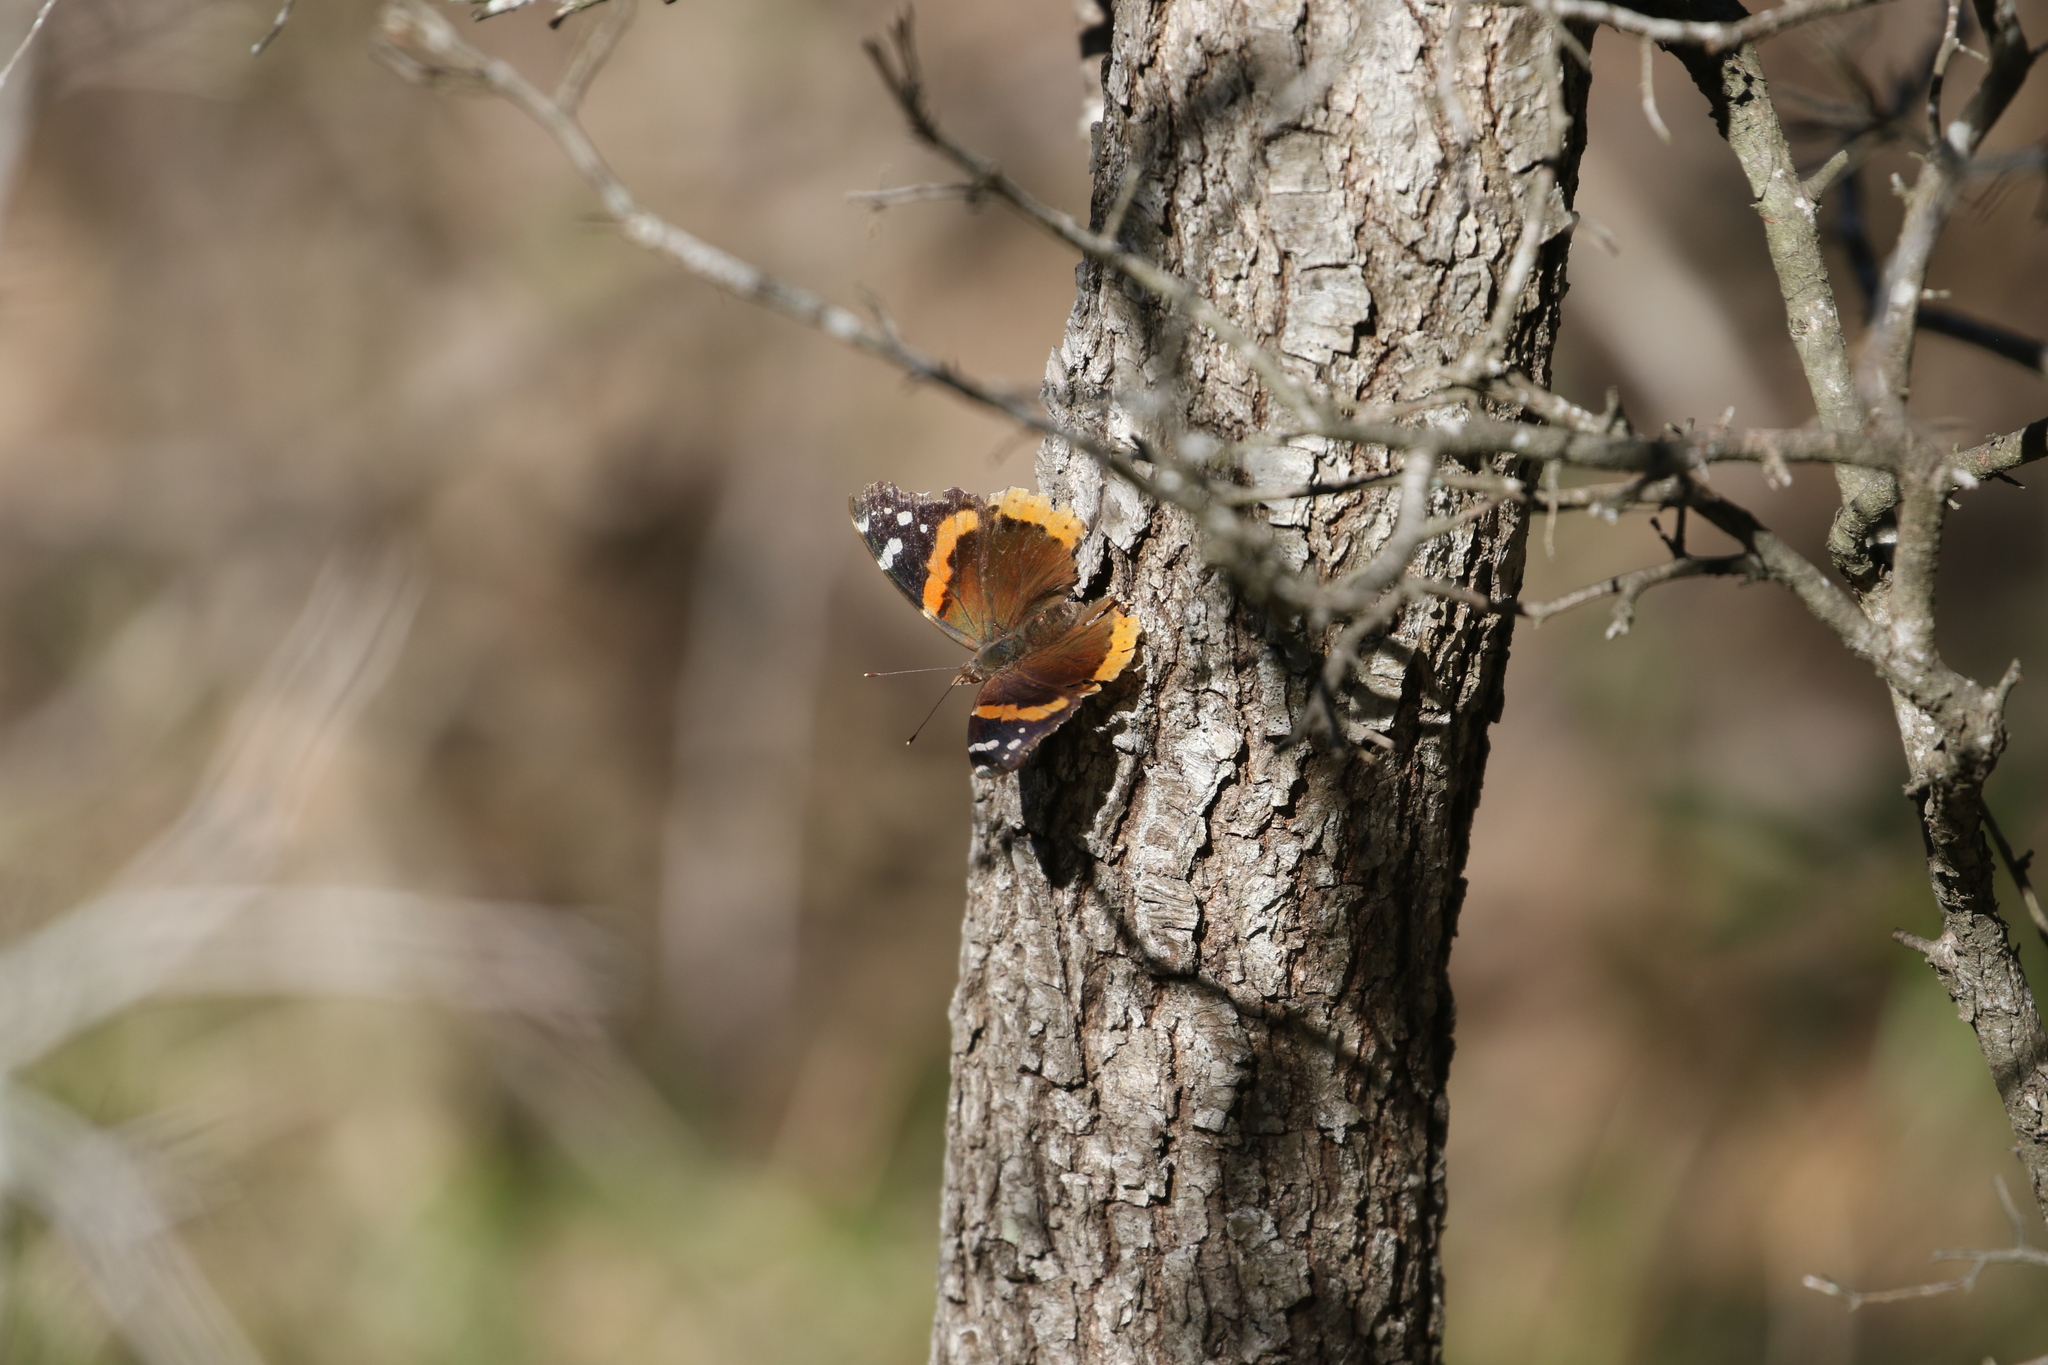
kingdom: Animalia
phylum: Arthropoda
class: Insecta
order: Lepidoptera
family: Nymphalidae
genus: Vanessa
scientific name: Vanessa atalanta
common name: Red admiral
